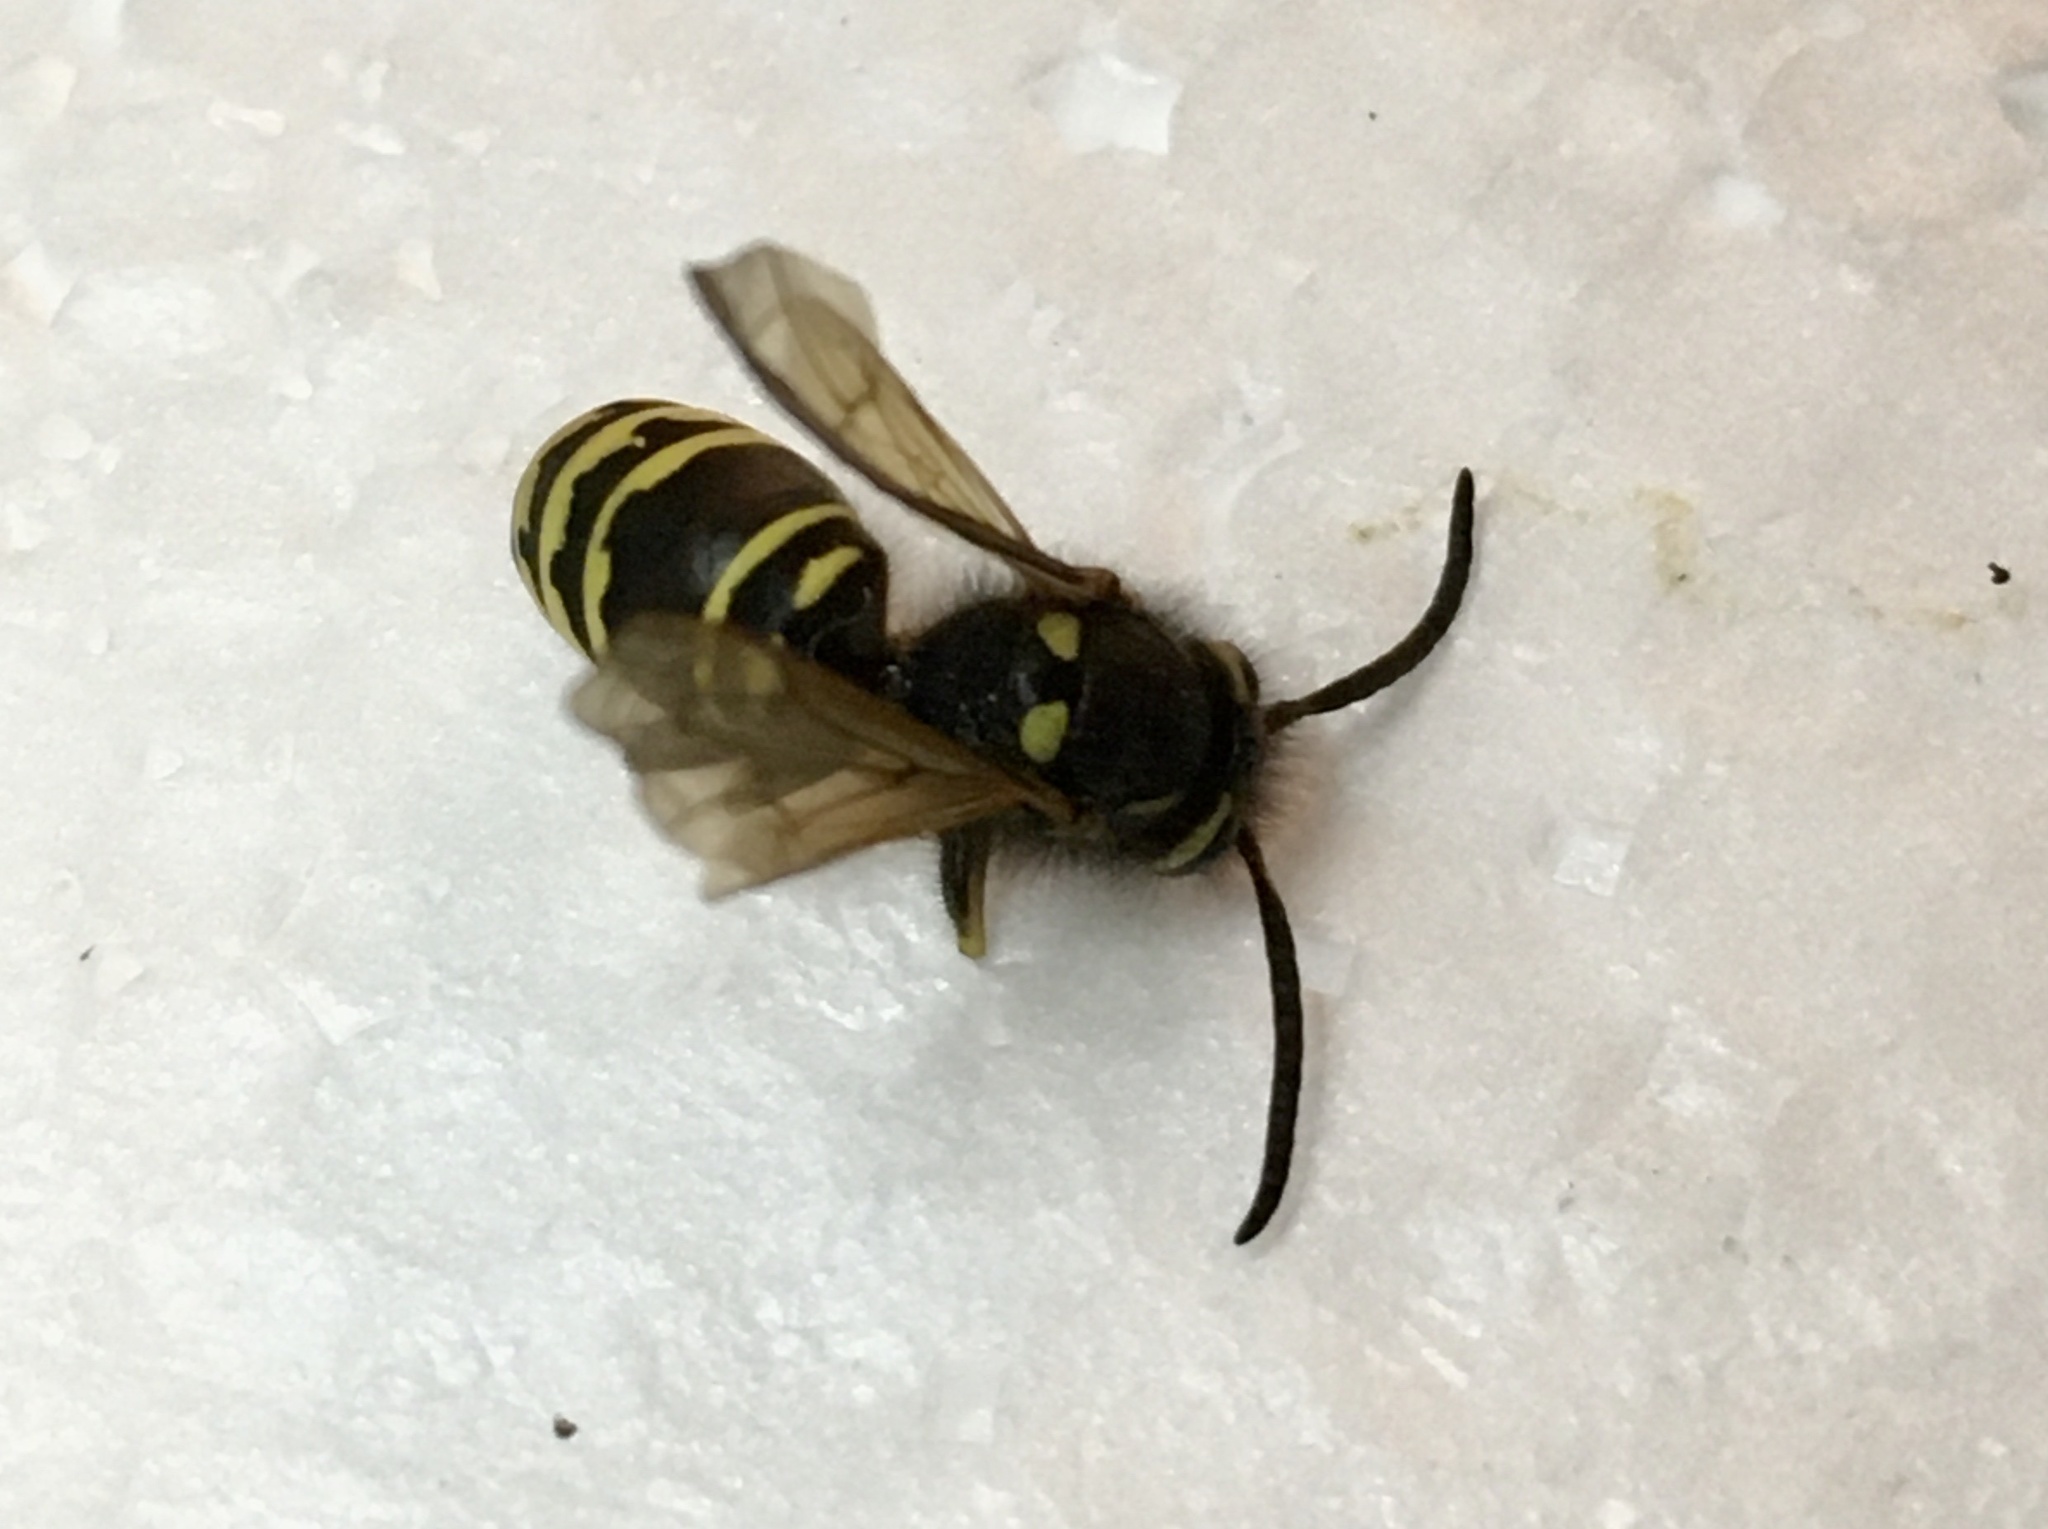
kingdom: Animalia
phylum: Arthropoda
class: Insecta
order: Hymenoptera
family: Vespidae
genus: Vespula
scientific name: Vespula vidua
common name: Widow yellowjacket
